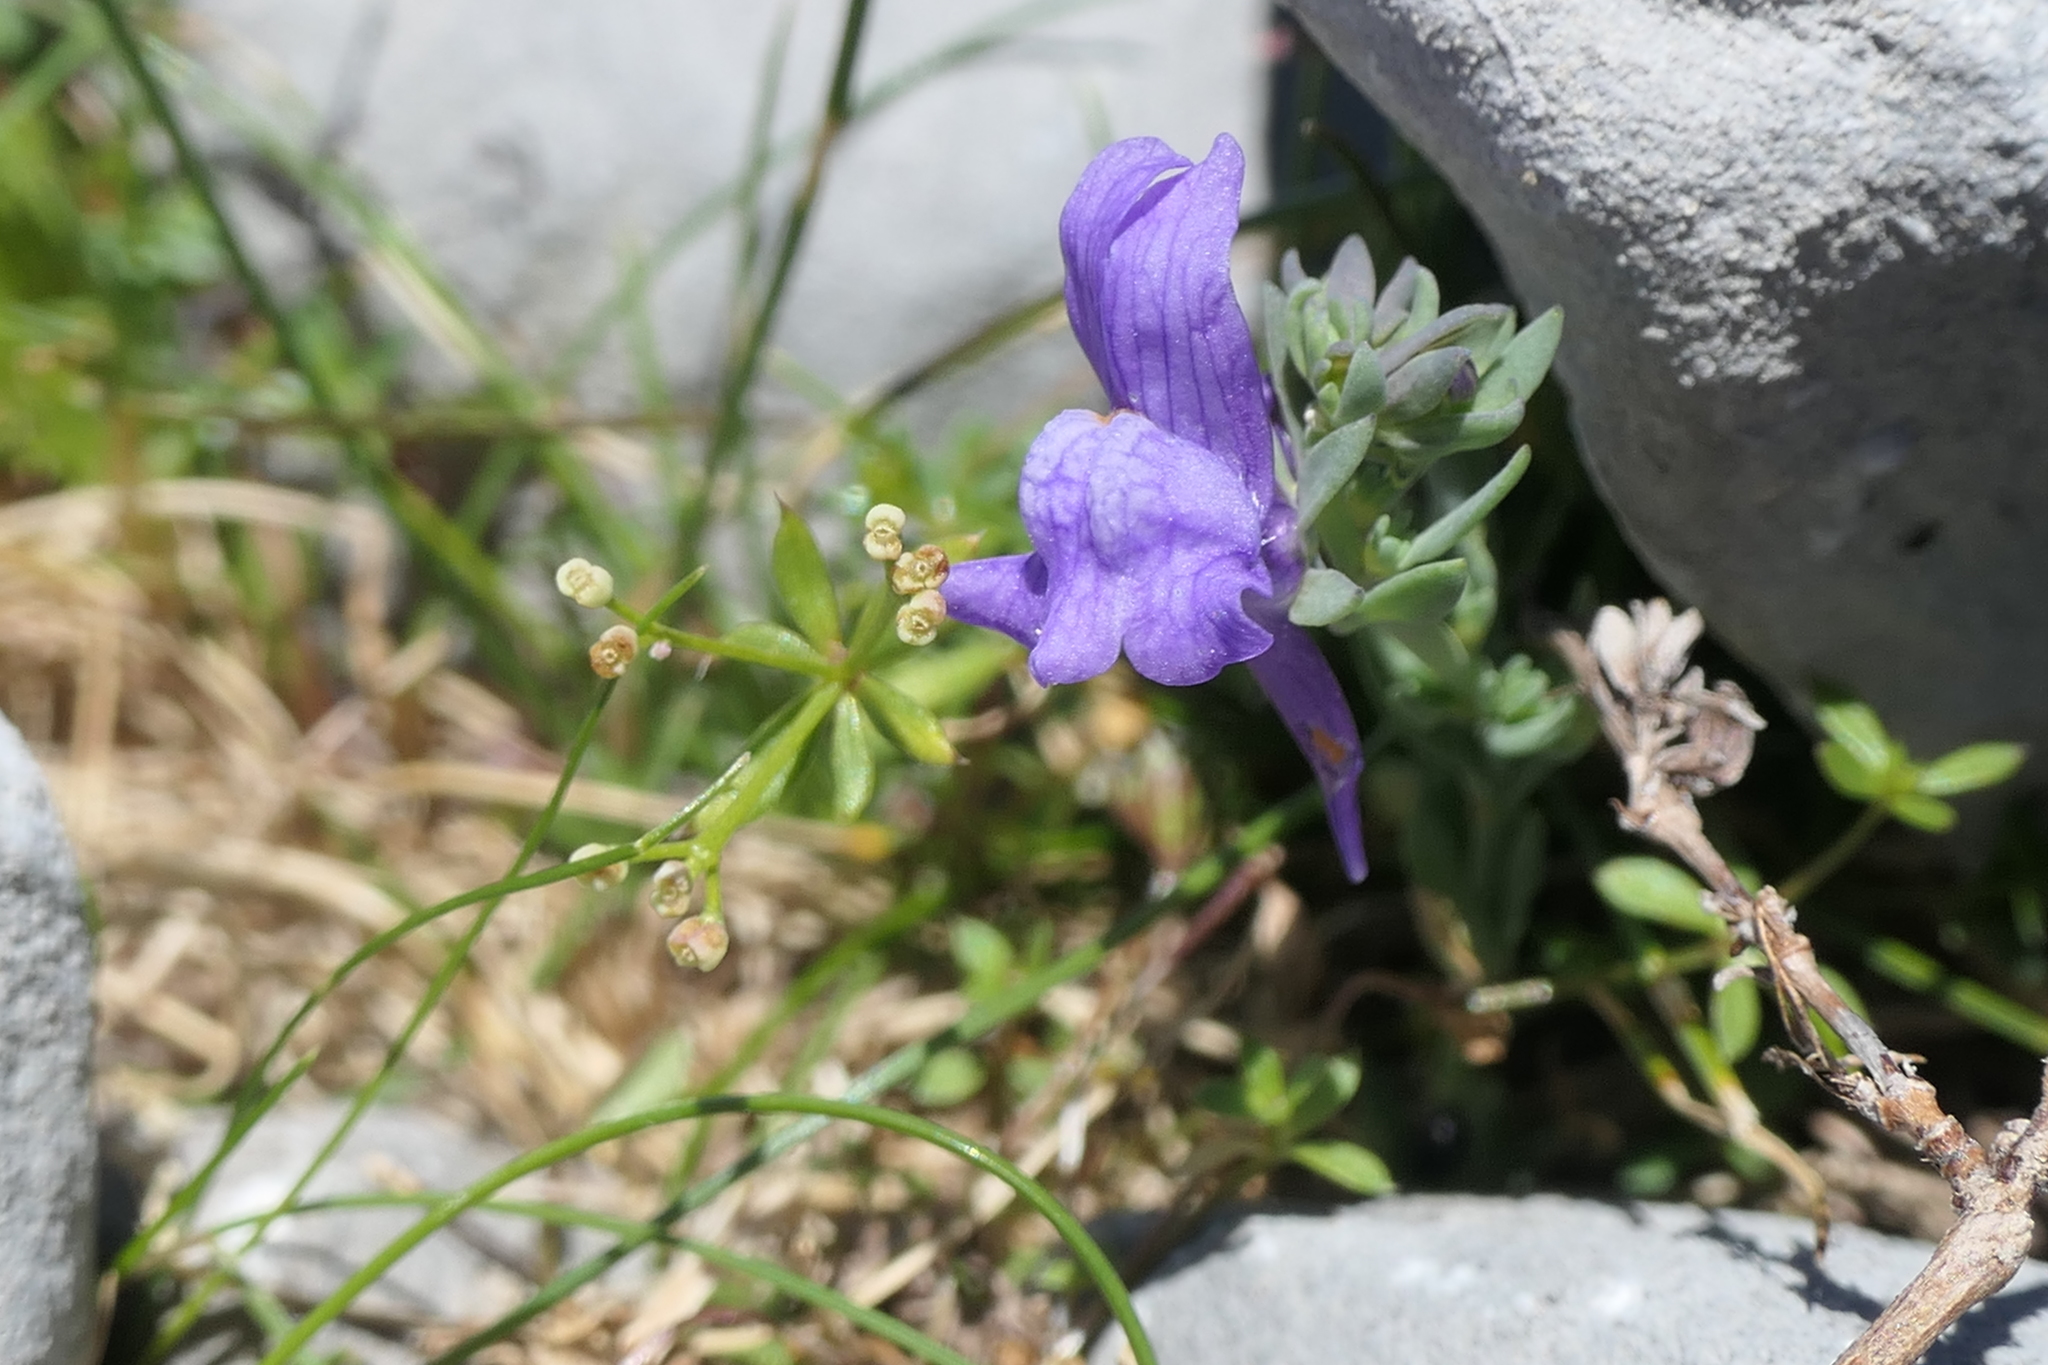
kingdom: Plantae
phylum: Tracheophyta
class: Magnoliopsida
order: Lamiales
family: Plantaginaceae
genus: Linaria
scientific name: Linaria alpina
